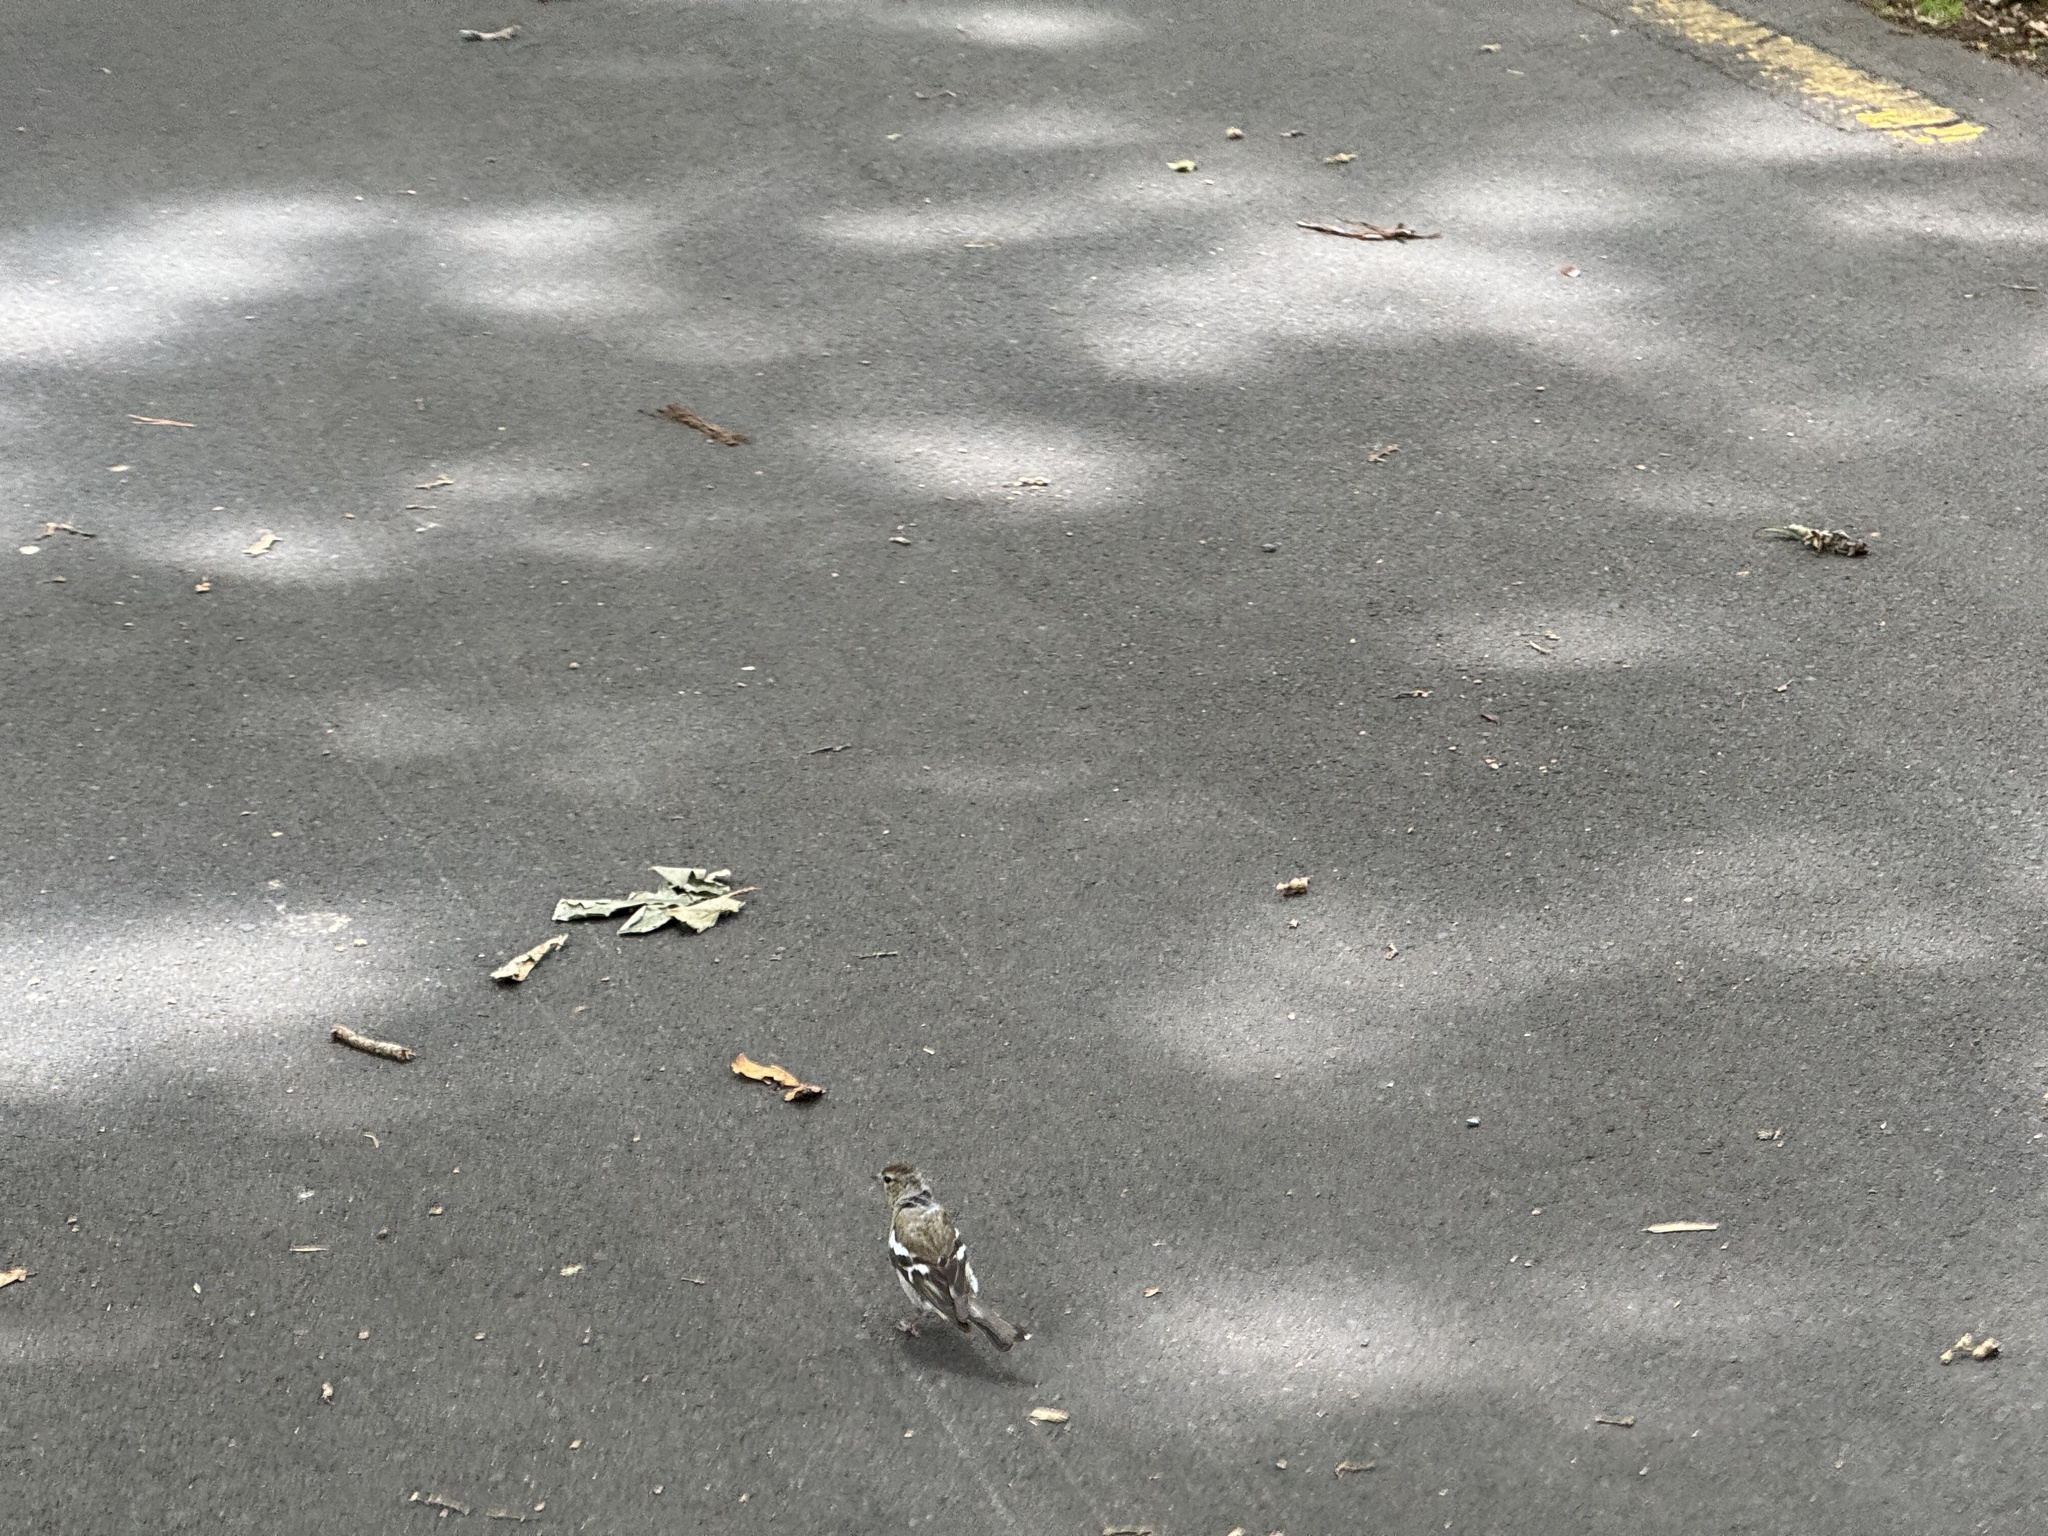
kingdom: Animalia
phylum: Chordata
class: Aves
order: Passeriformes
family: Fringillidae
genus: Fringilla
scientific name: Fringilla coelebs
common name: Common chaffinch
